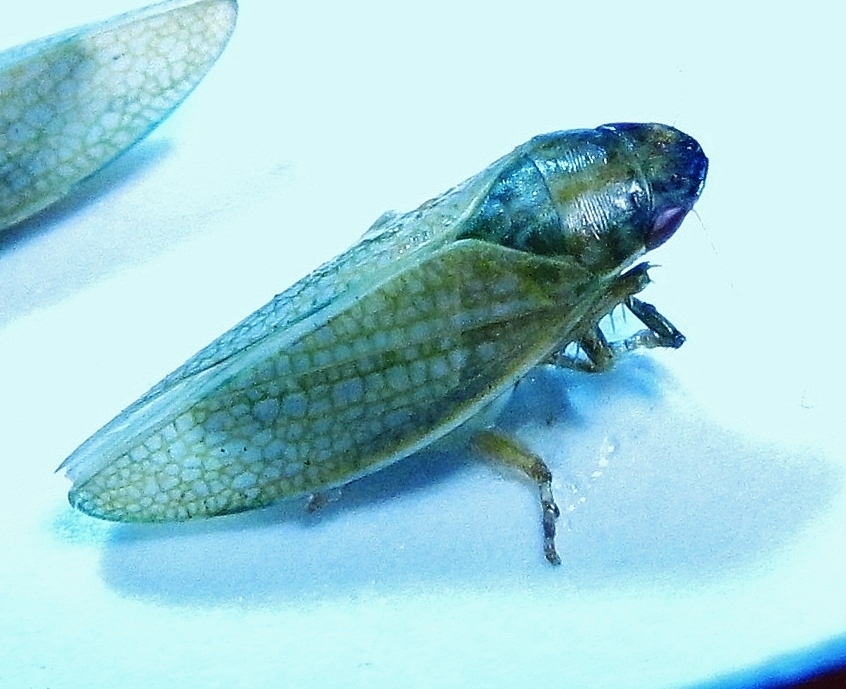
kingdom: Animalia
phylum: Arthropoda
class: Insecta
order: Hemiptera
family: Cicadellidae
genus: Gyponana
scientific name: Gyponana procera
